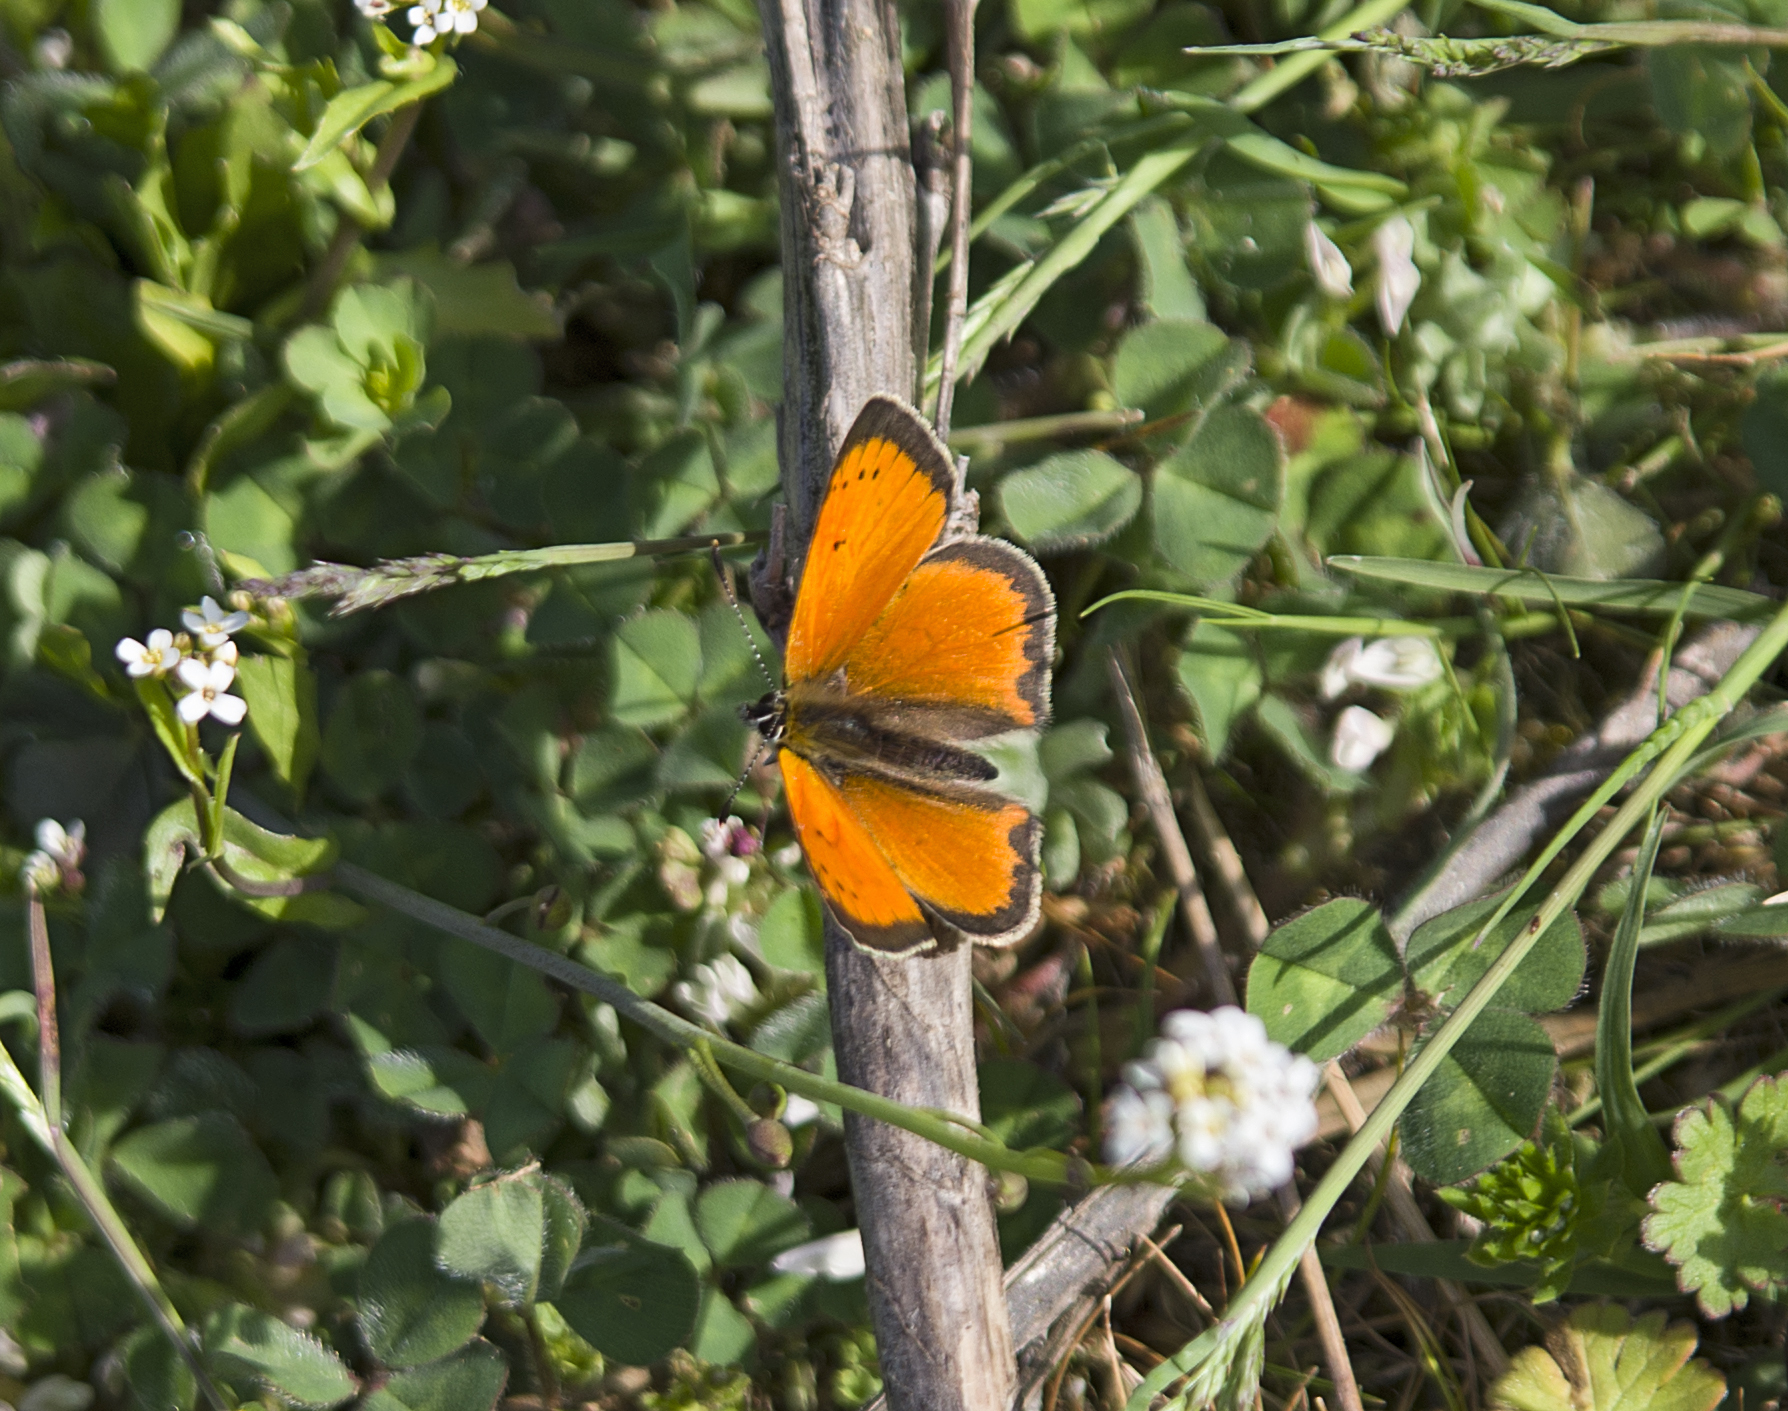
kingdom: Animalia
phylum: Arthropoda
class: Insecta
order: Lepidoptera
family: Lycaenidae
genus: Polyommatus
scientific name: Polyommatus ottomanus
